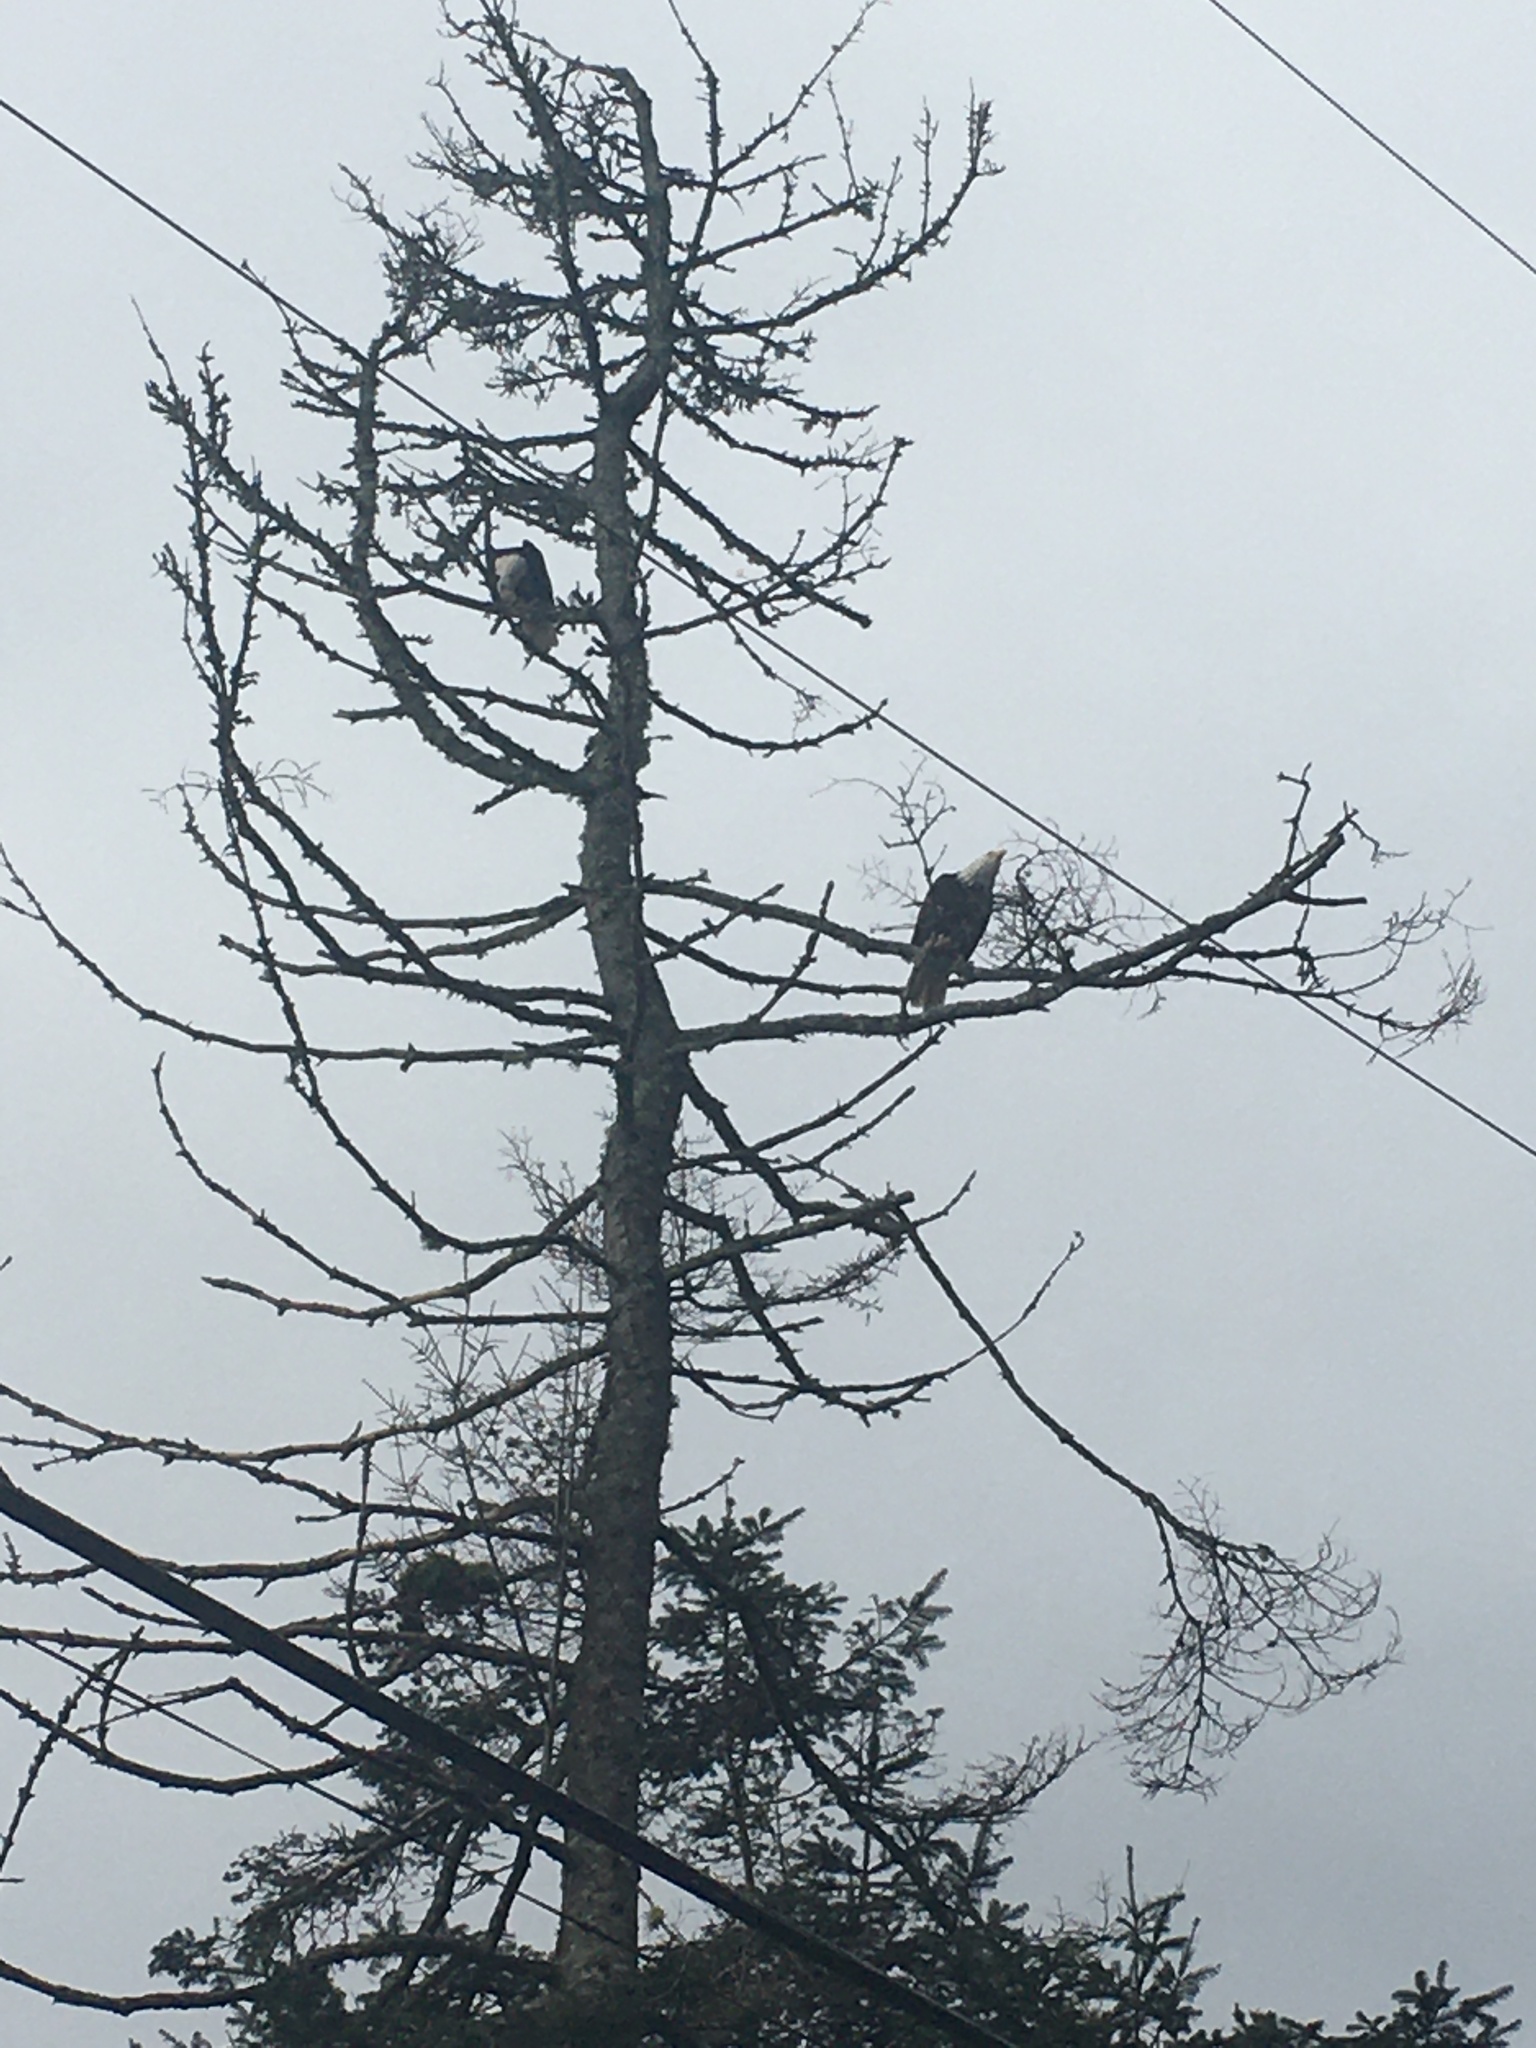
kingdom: Animalia
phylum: Chordata
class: Aves
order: Accipitriformes
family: Accipitridae
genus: Haliaeetus
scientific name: Haliaeetus leucocephalus
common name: Bald eagle
